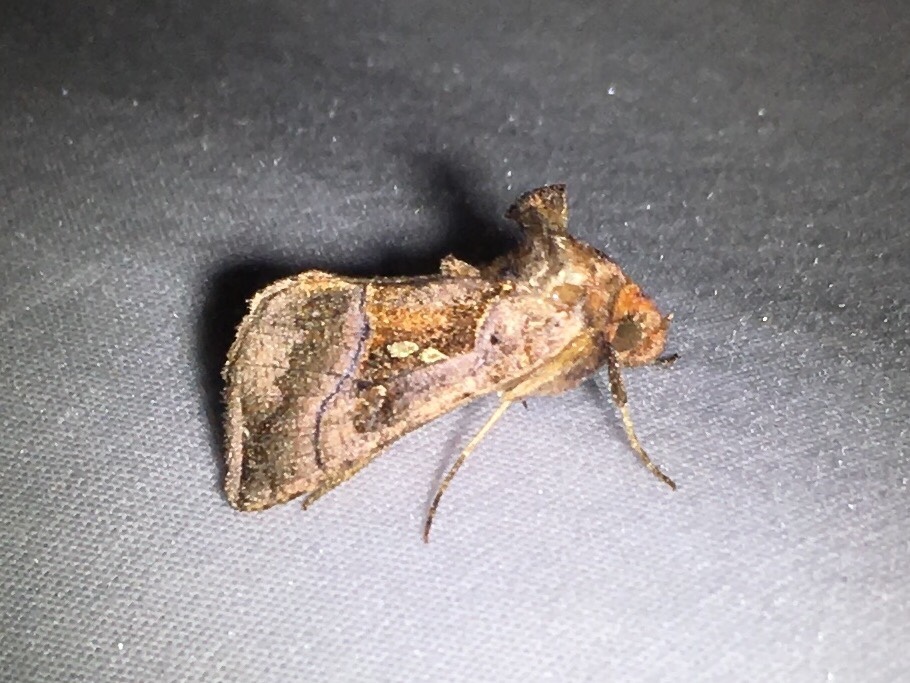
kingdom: Animalia
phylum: Arthropoda
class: Insecta
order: Lepidoptera
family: Noctuidae
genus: Enigmogramma
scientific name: Enigmogramma basigera
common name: Pink-washed looper moth
